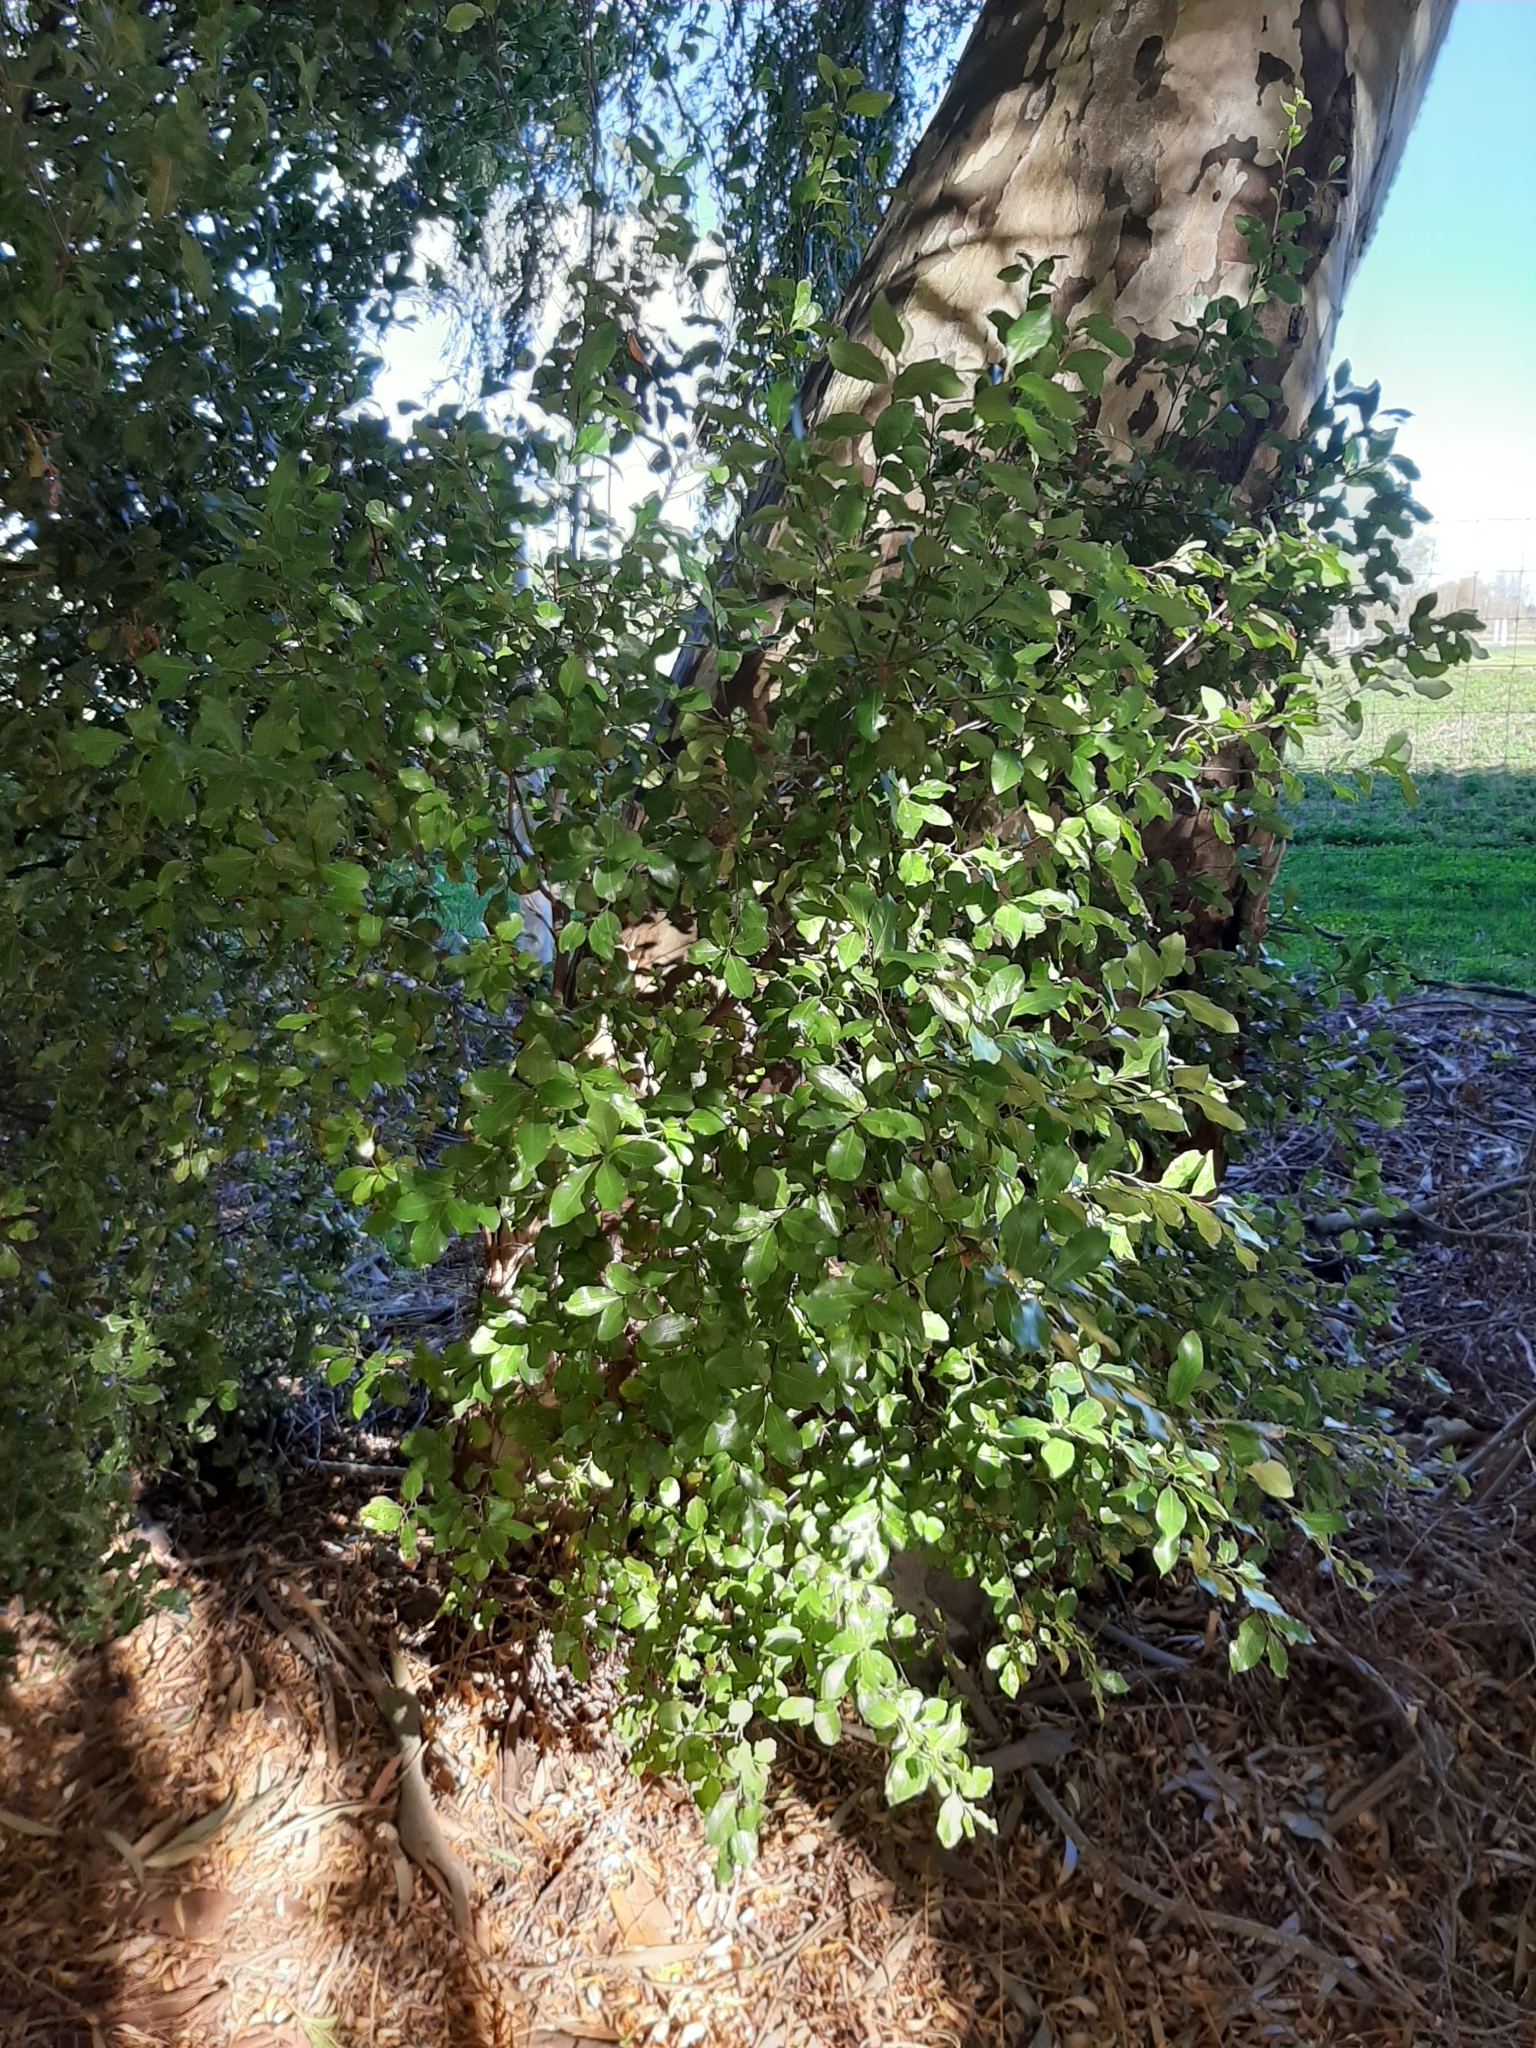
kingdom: Plantae
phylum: Tracheophyta
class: Magnoliopsida
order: Apiales
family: Pittosporaceae
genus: Pittosporum
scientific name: Pittosporum tenuifolium
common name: Kohuhu
